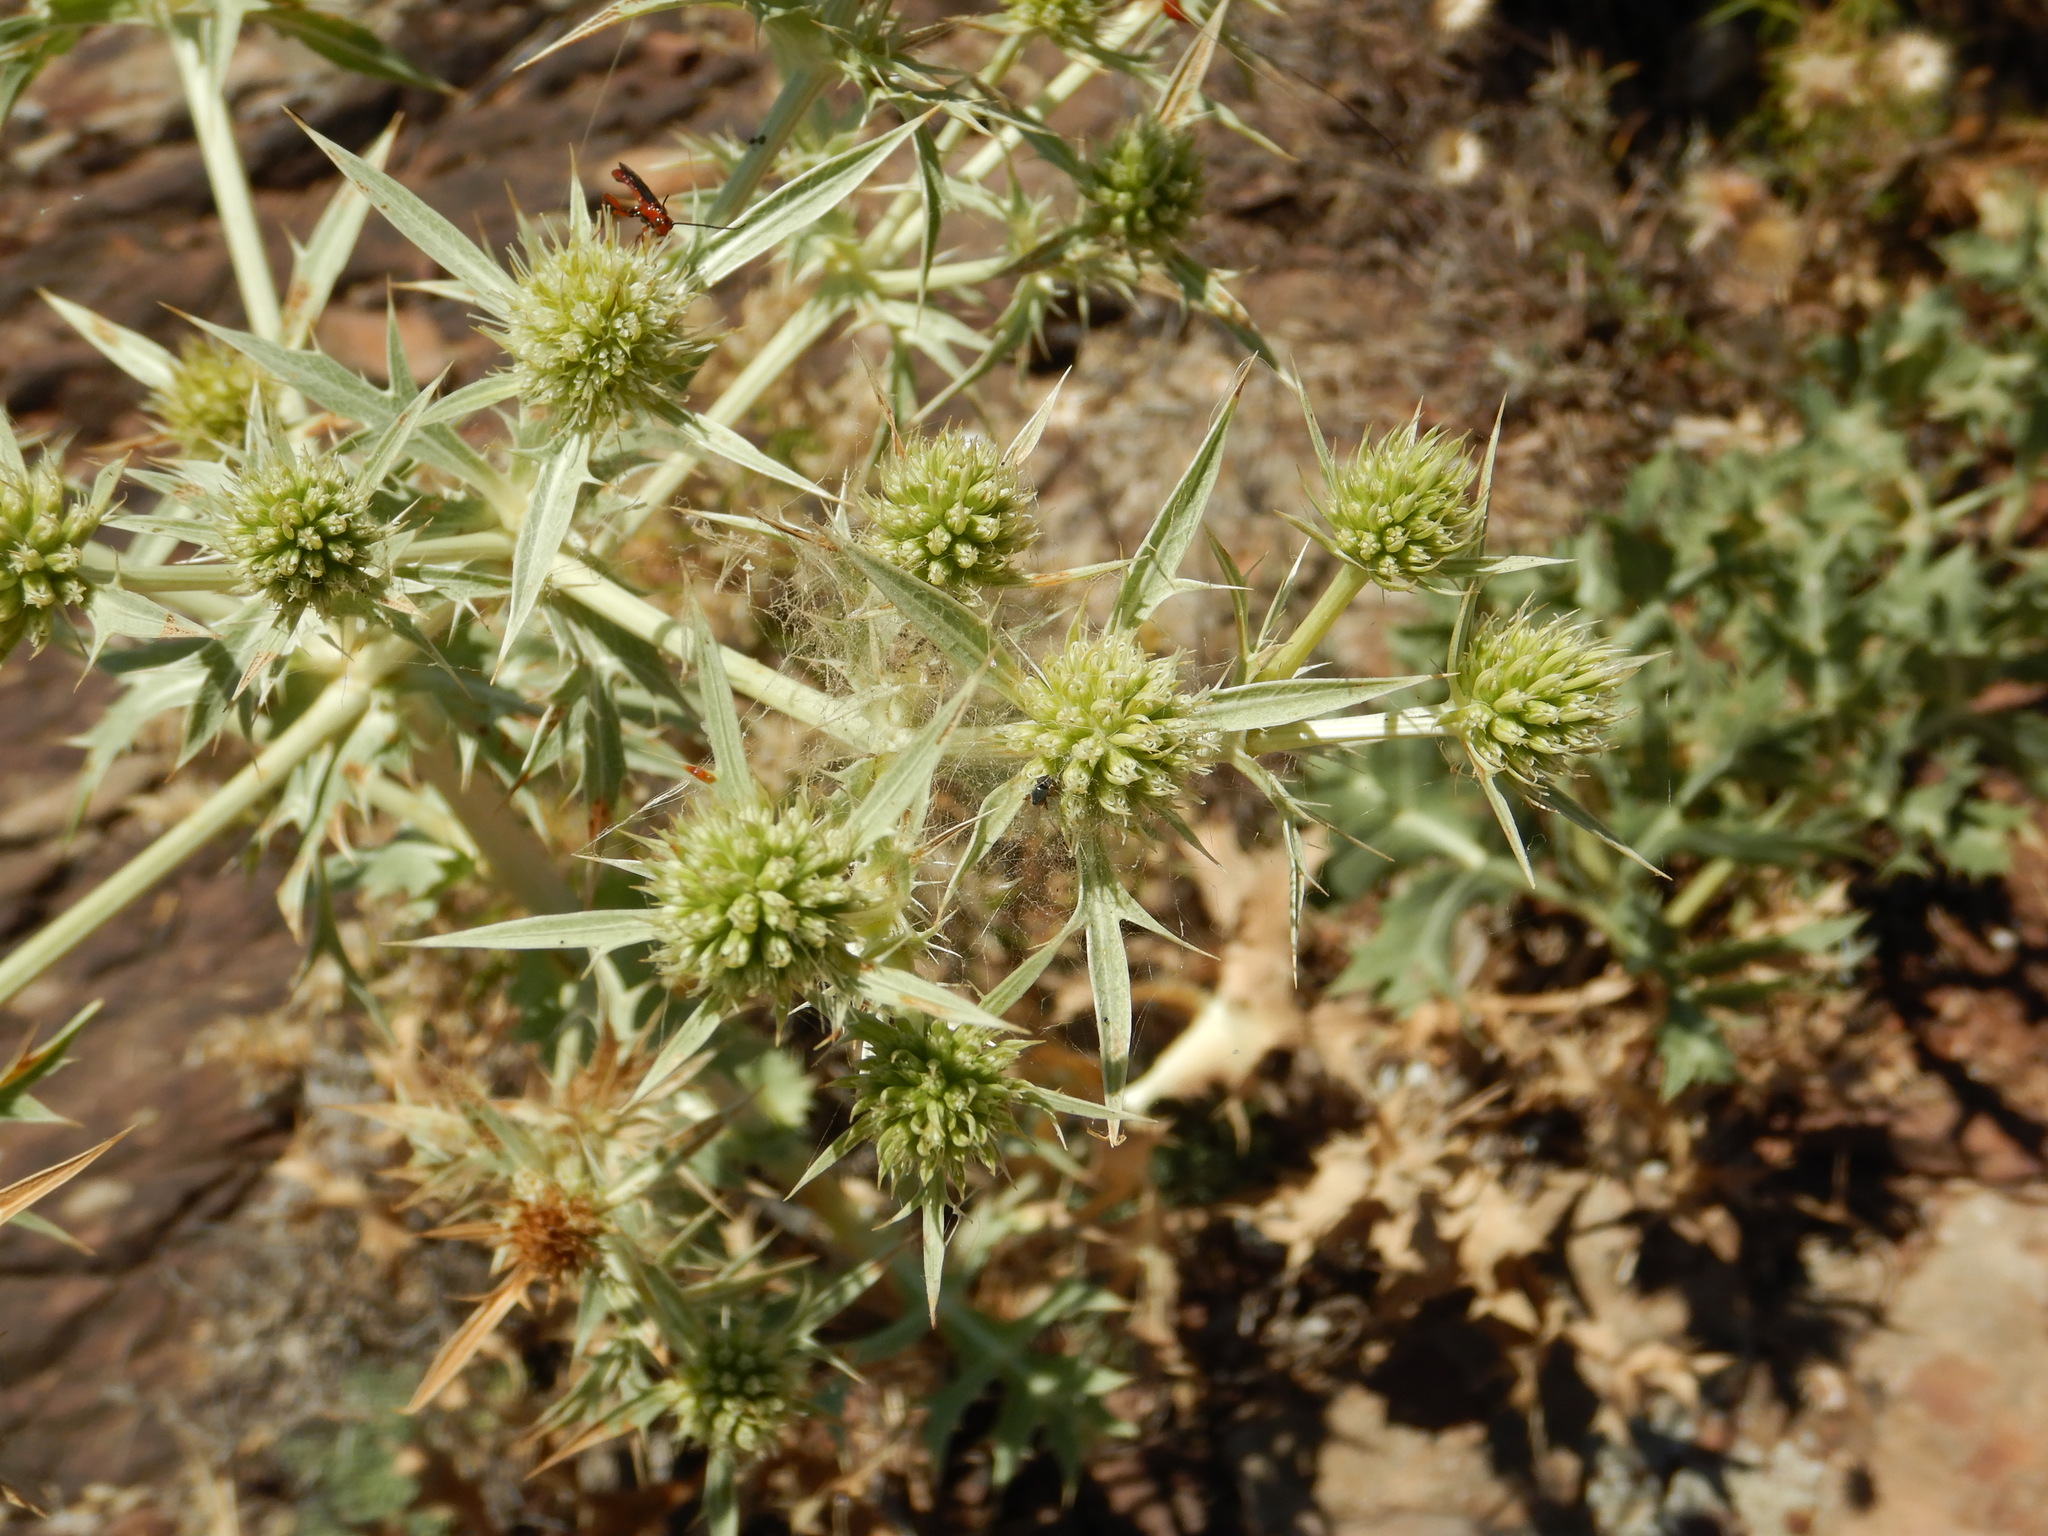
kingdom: Plantae
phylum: Tracheophyta
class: Magnoliopsida
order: Apiales
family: Apiaceae
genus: Eryngium
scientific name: Eryngium campestre
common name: Field eryngo
